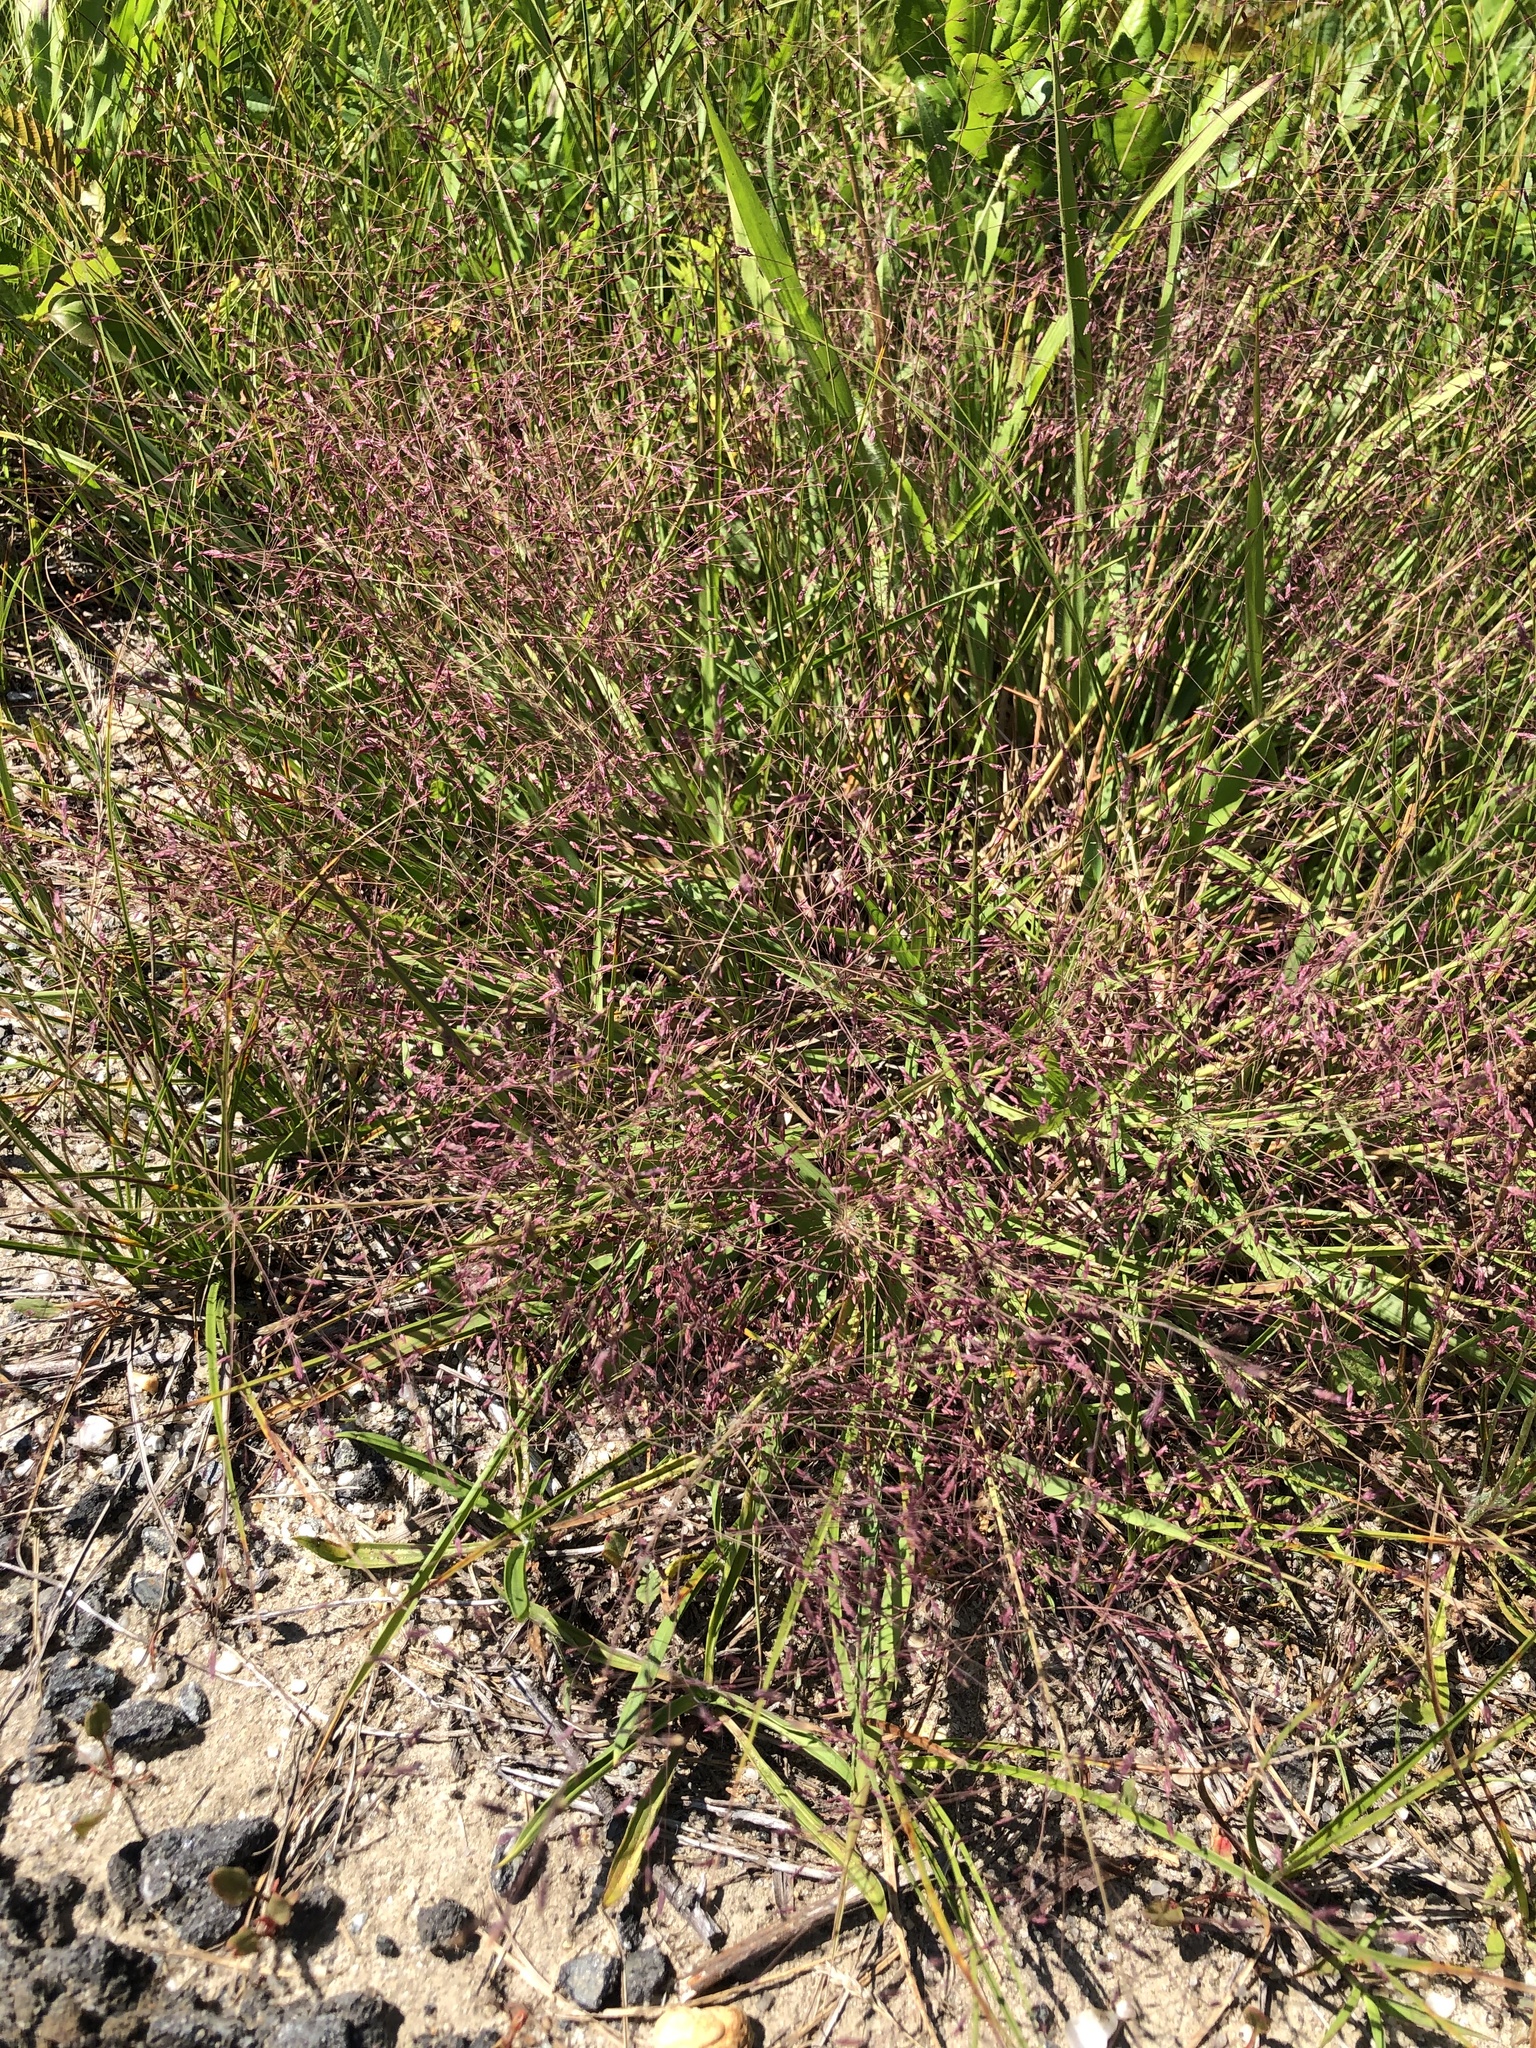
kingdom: Plantae
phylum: Tracheophyta
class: Liliopsida
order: Poales
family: Poaceae
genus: Eragrostis
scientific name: Eragrostis spectabilis
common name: Petticoat-climber
